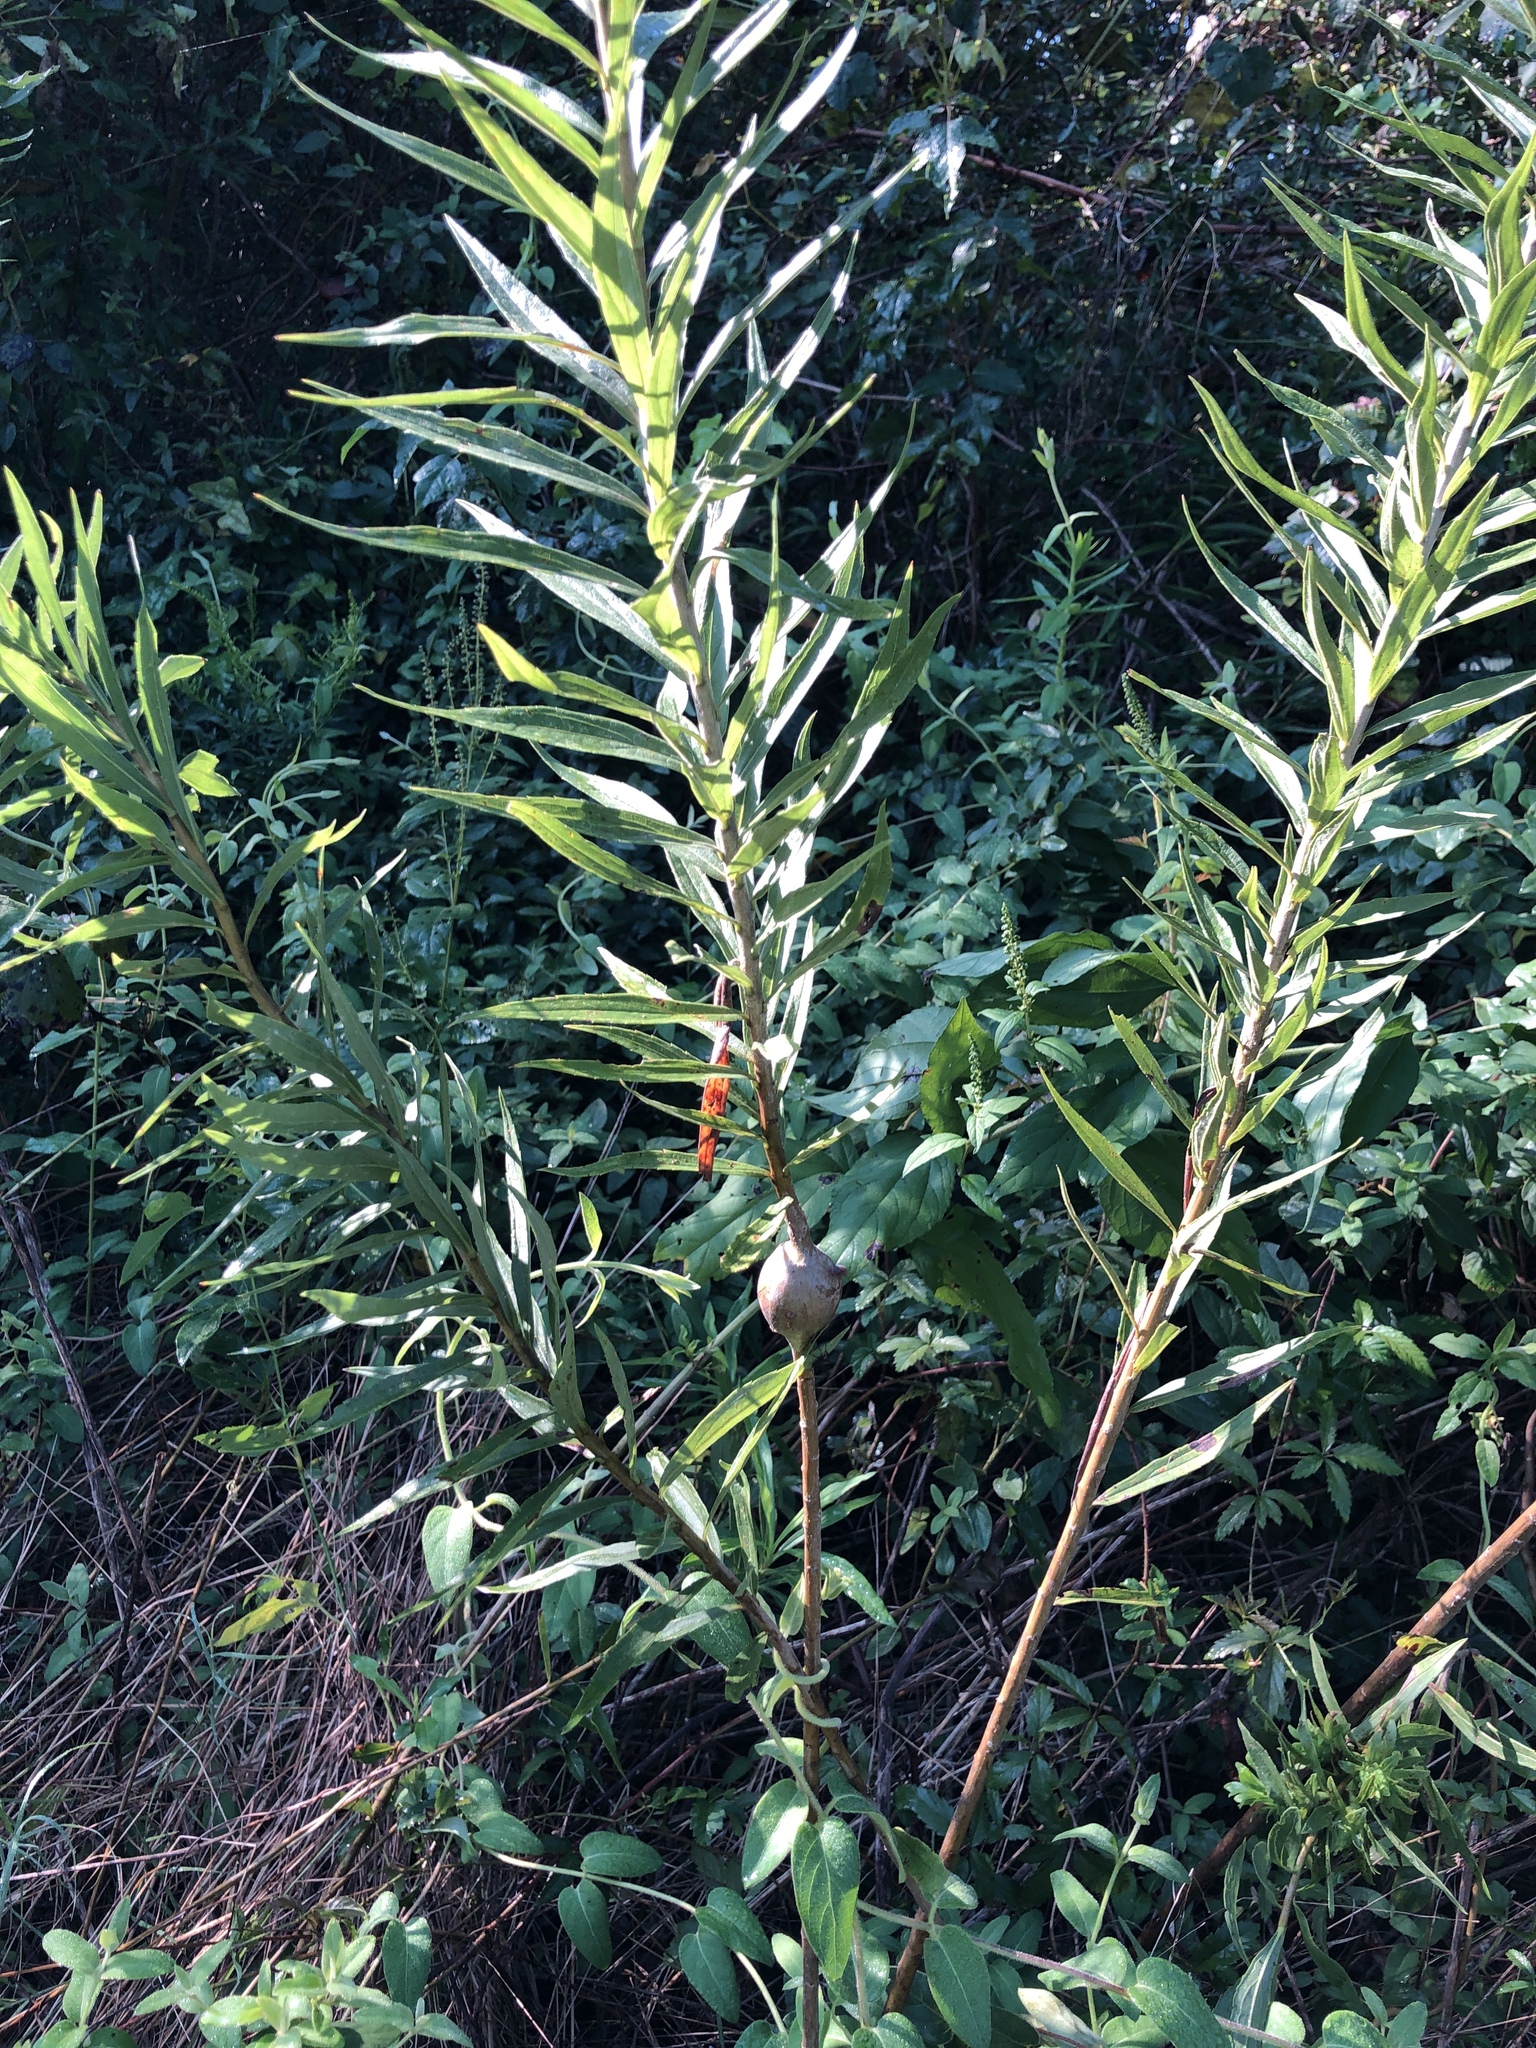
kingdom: Animalia
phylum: Arthropoda
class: Insecta
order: Diptera
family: Tephritidae
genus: Eurosta
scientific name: Eurosta solidaginis
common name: Goldenrod gall fly
